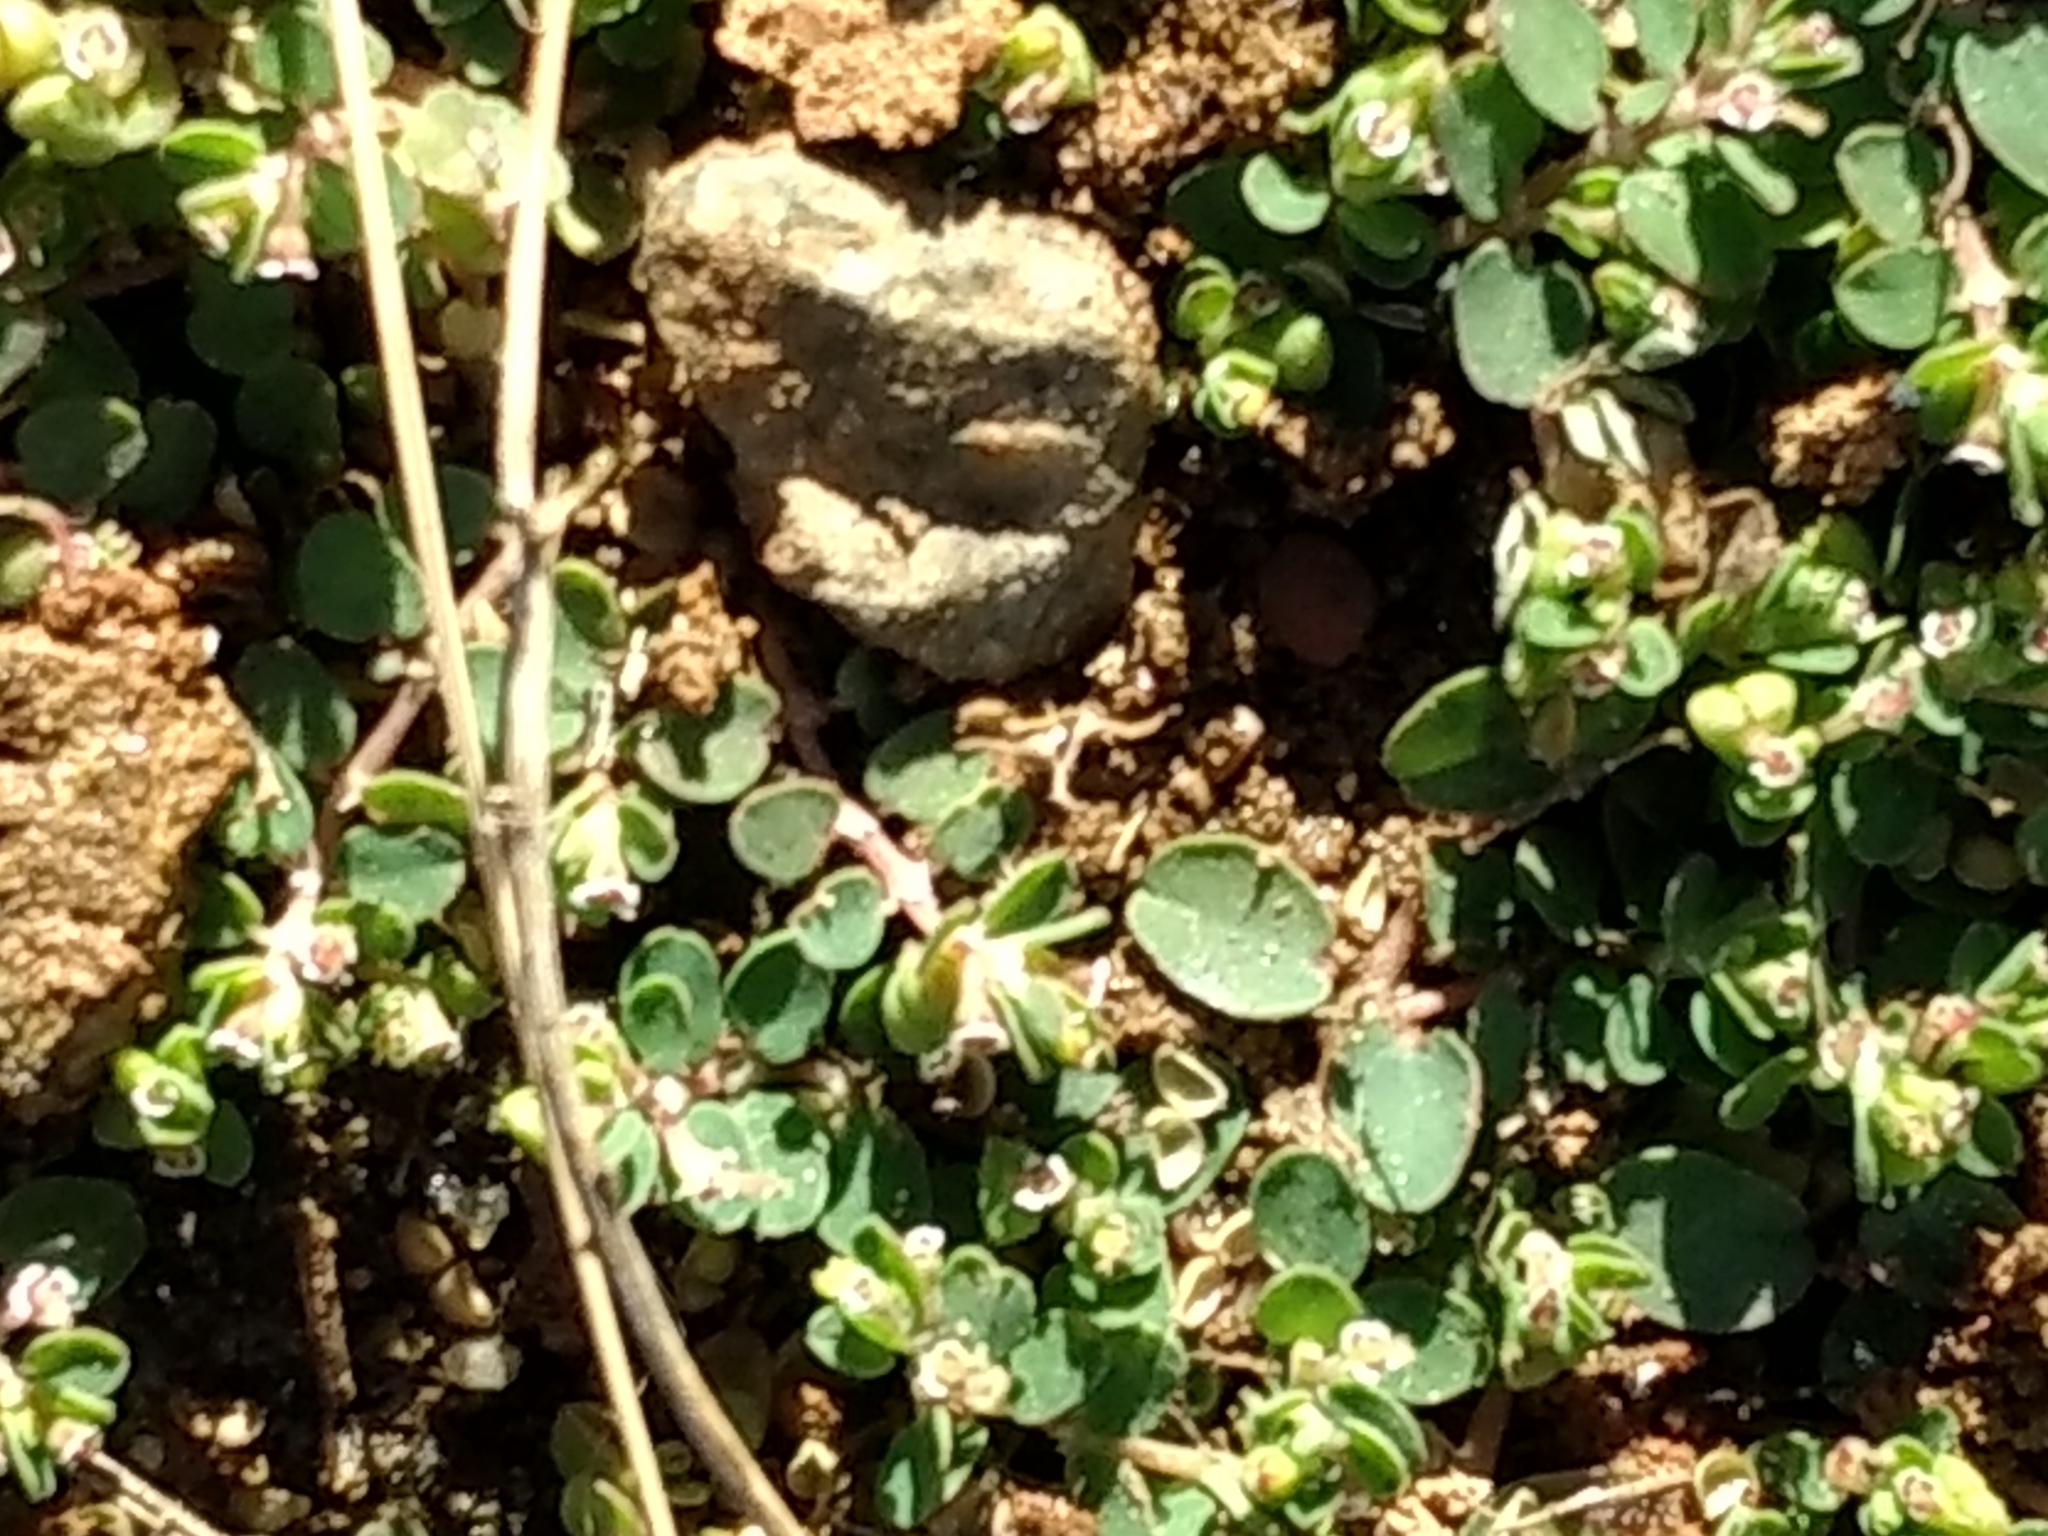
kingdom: Plantae
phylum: Tracheophyta
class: Magnoliopsida
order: Malpighiales
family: Euphorbiaceae
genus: Euphorbia
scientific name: Euphorbia serpens
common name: Matted sandmat
